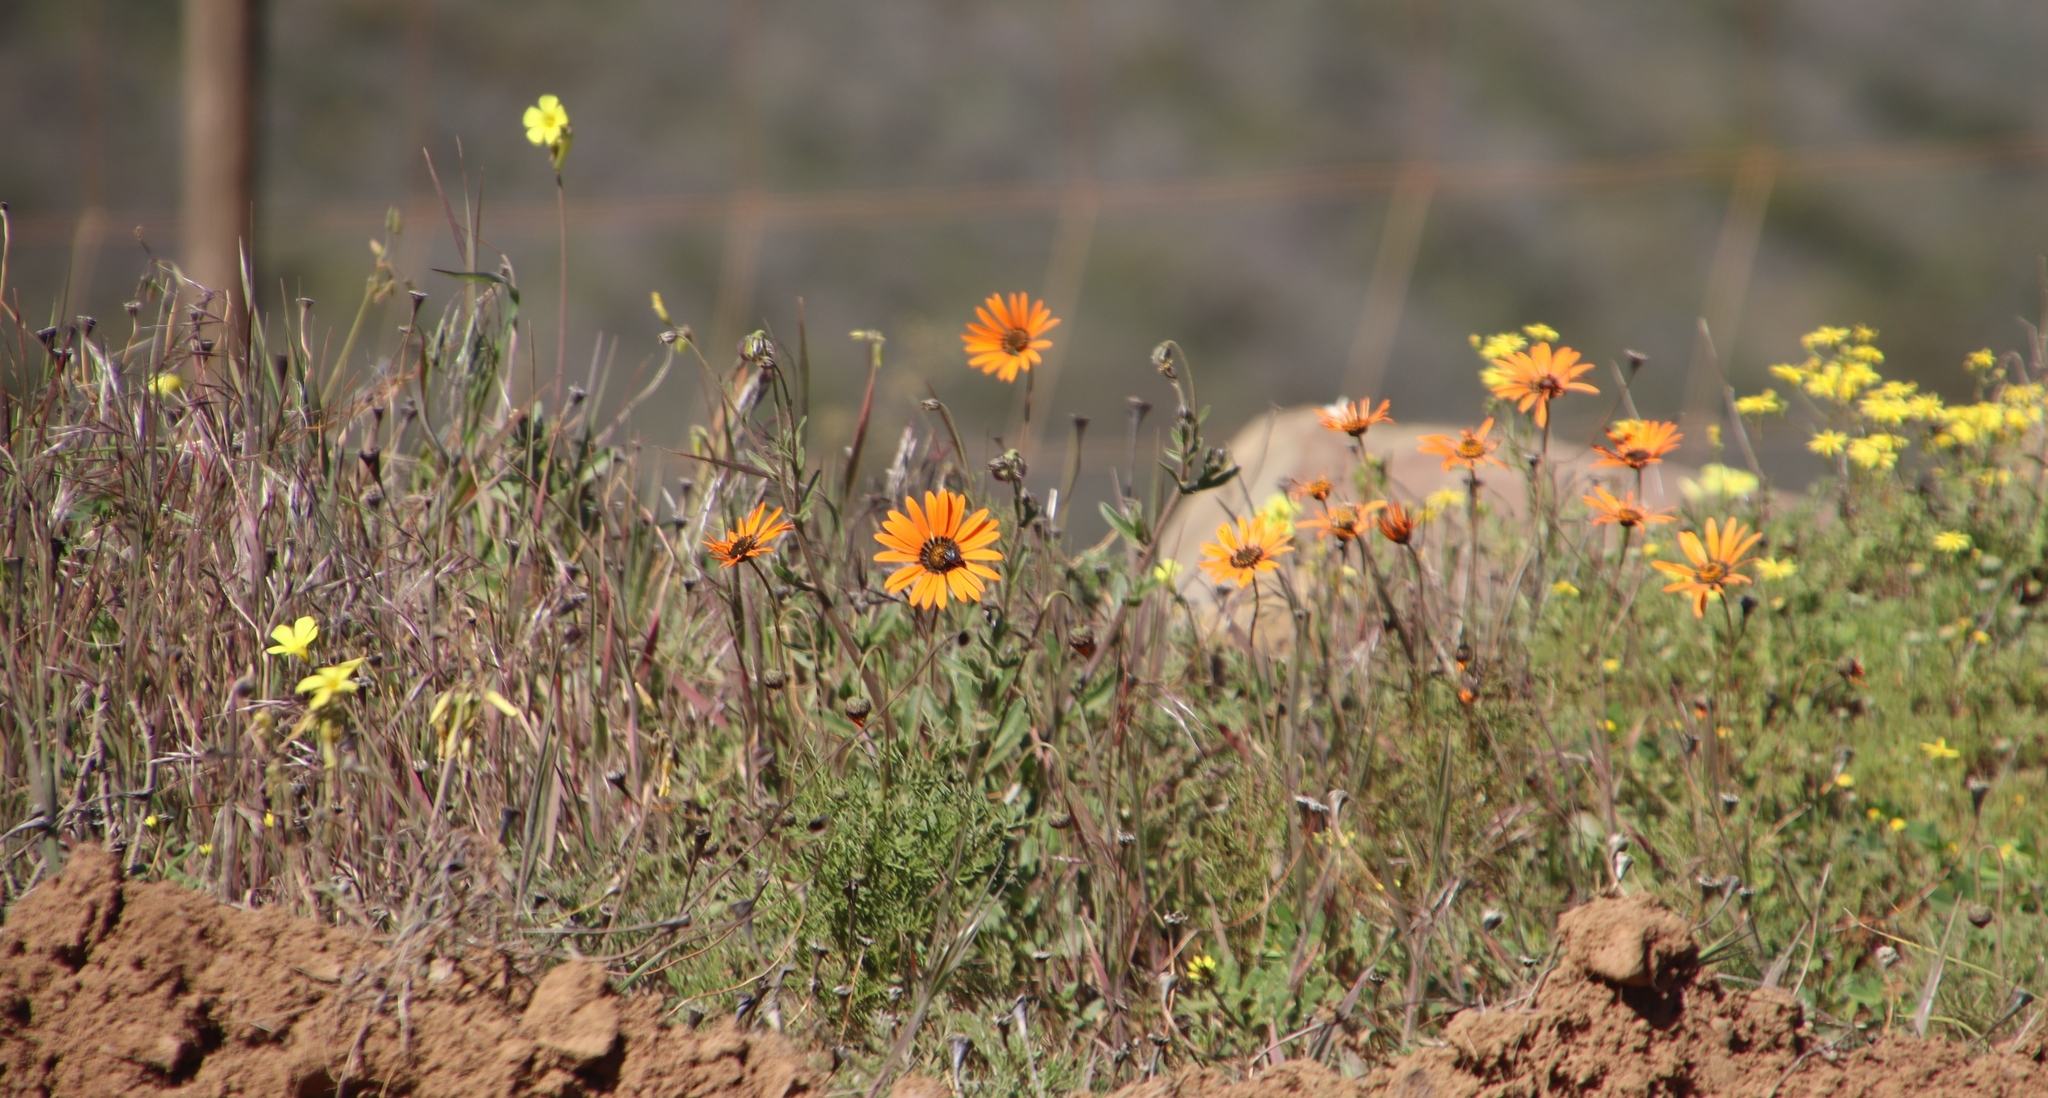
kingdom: Plantae
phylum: Tracheophyta
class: Magnoliopsida
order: Asterales
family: Asteraceae
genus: Dimorphotheca
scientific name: Dimorphotheca sinuata
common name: Glandular cape marigold
